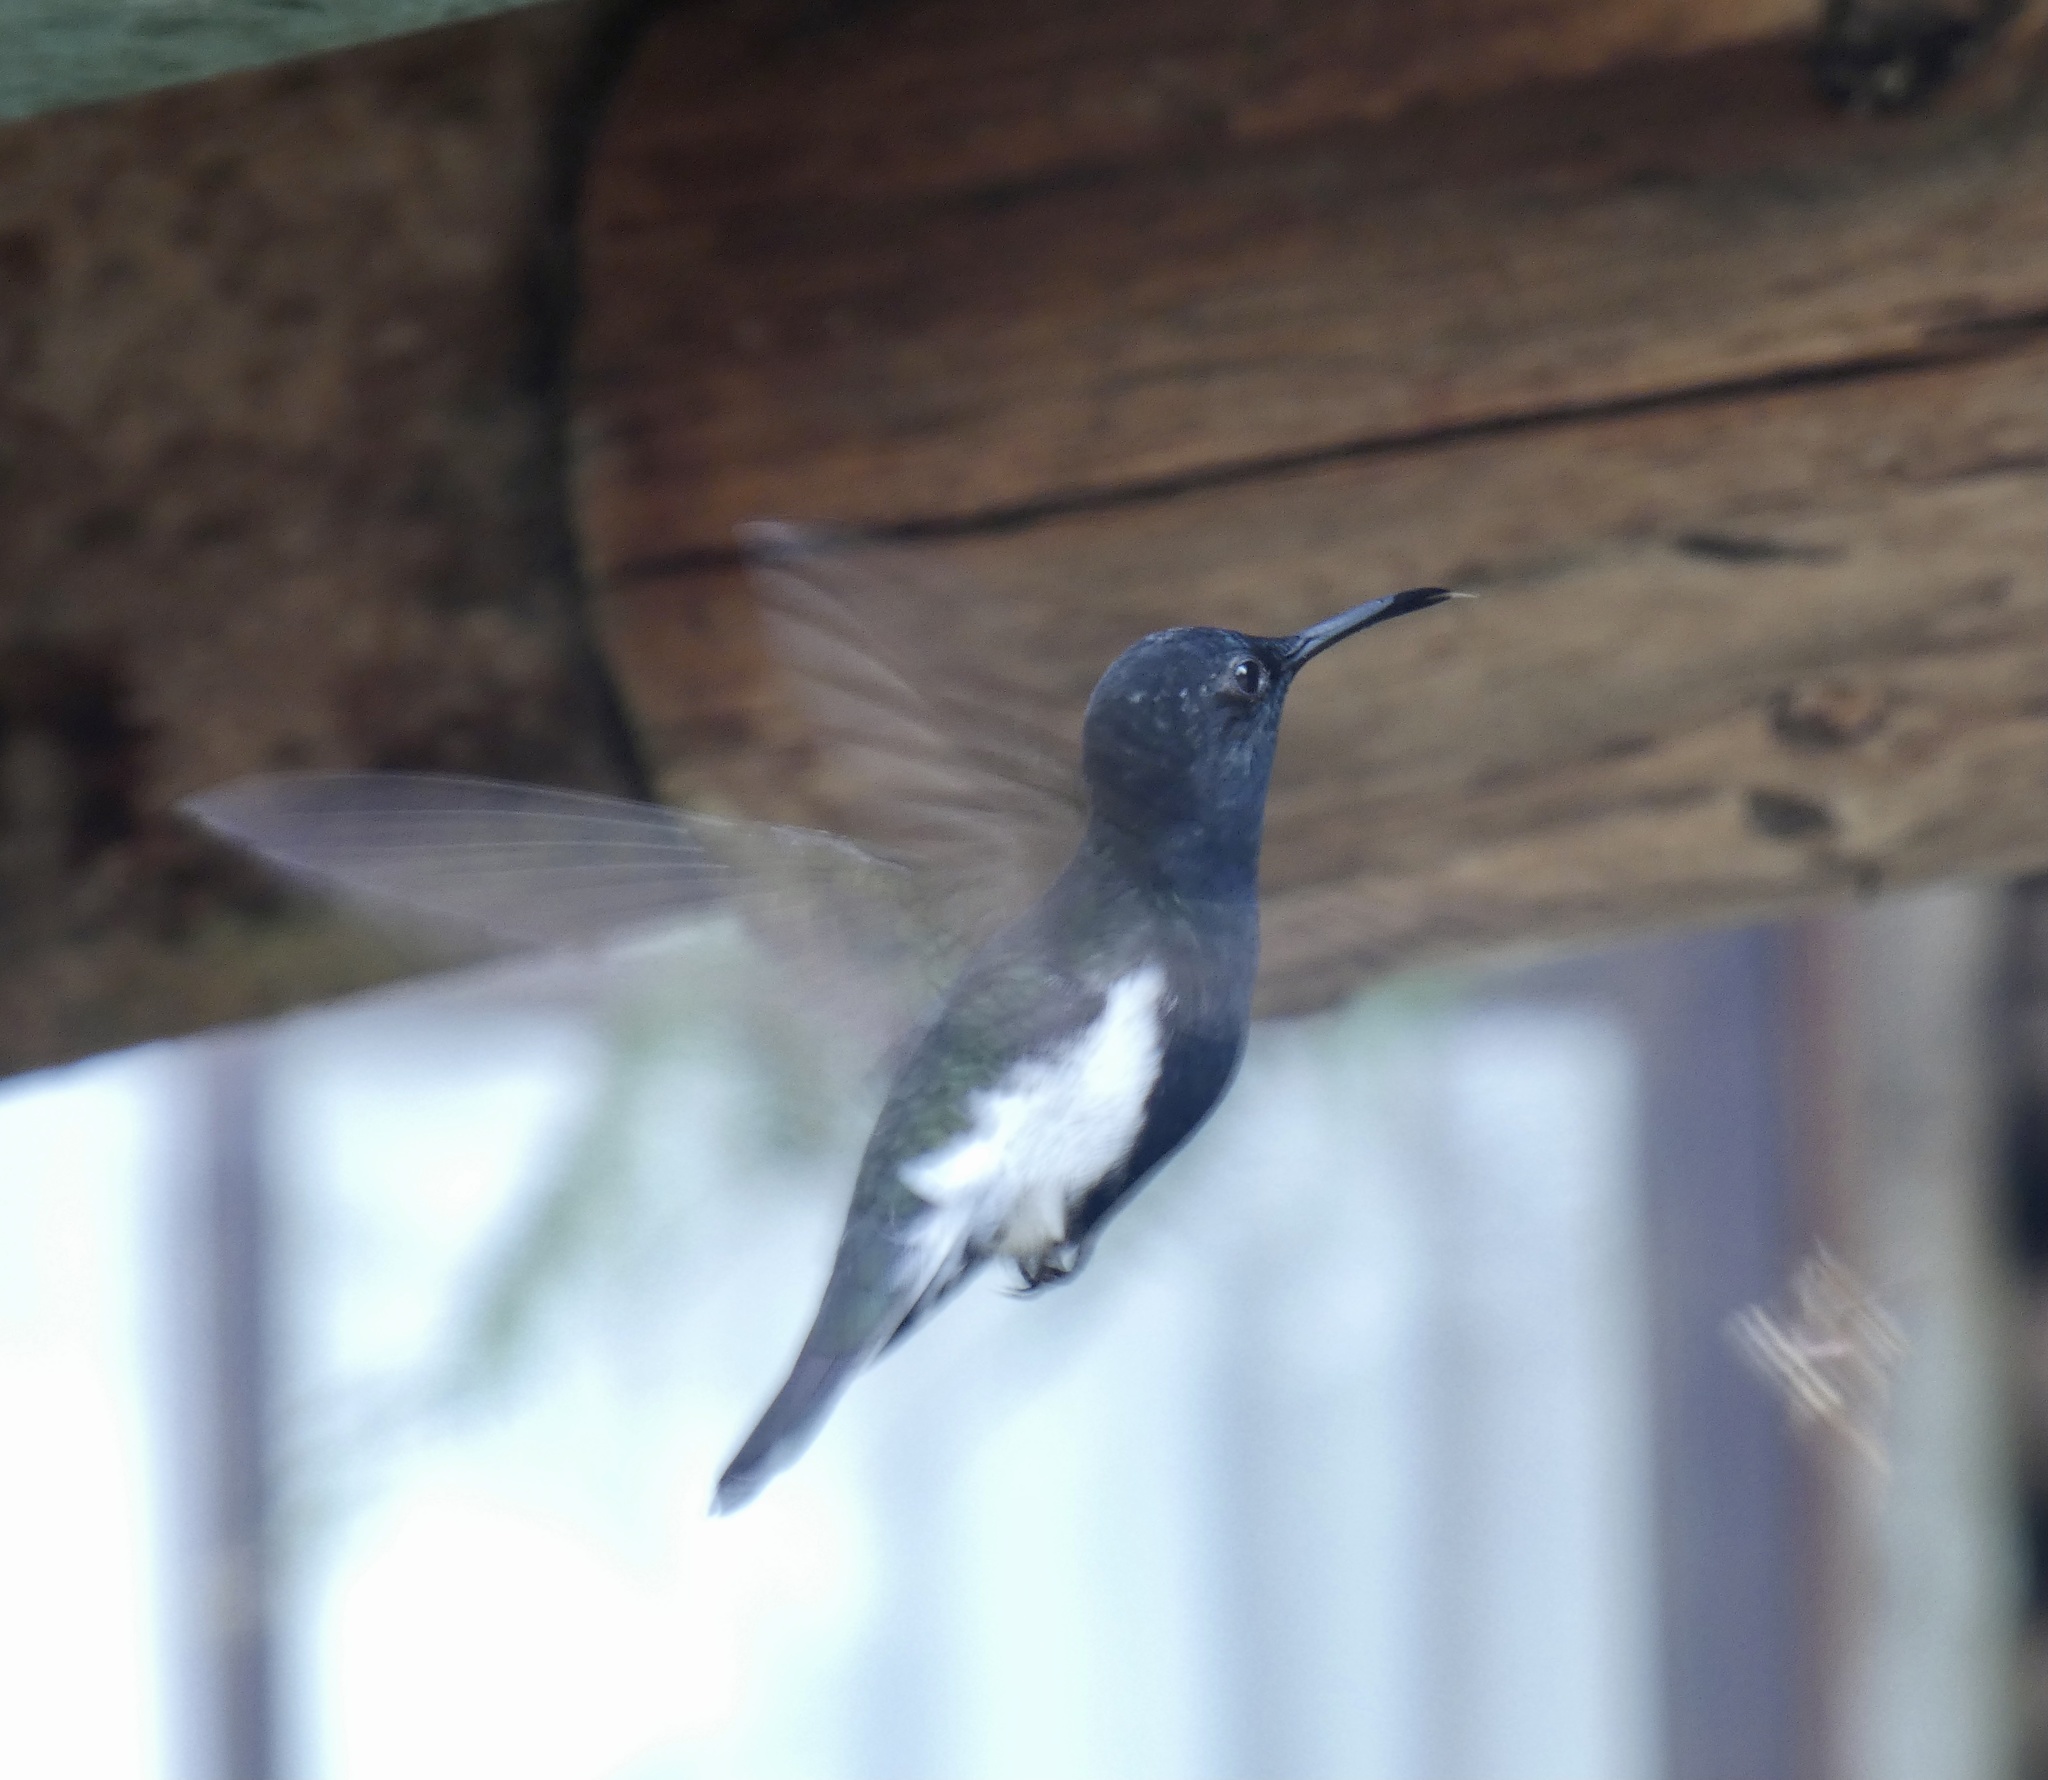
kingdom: Animalia
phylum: Chordata
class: Aves
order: Apodiformes
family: Trochilidae
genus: Florisuga
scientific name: Florisuga fusca
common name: Black jacobin
